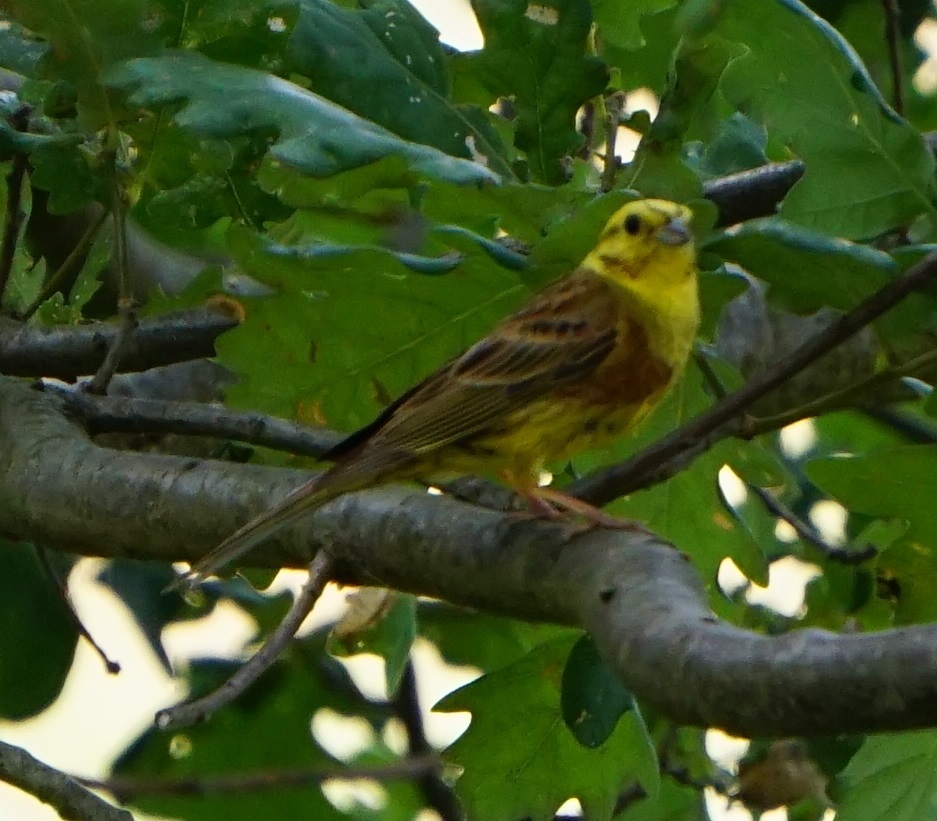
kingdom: Animalia
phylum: Chordata
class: Aves
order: Passeriformes
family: Emberizidae
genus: Emberiza
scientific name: Emberiza citrinella
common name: Yellowhammer
